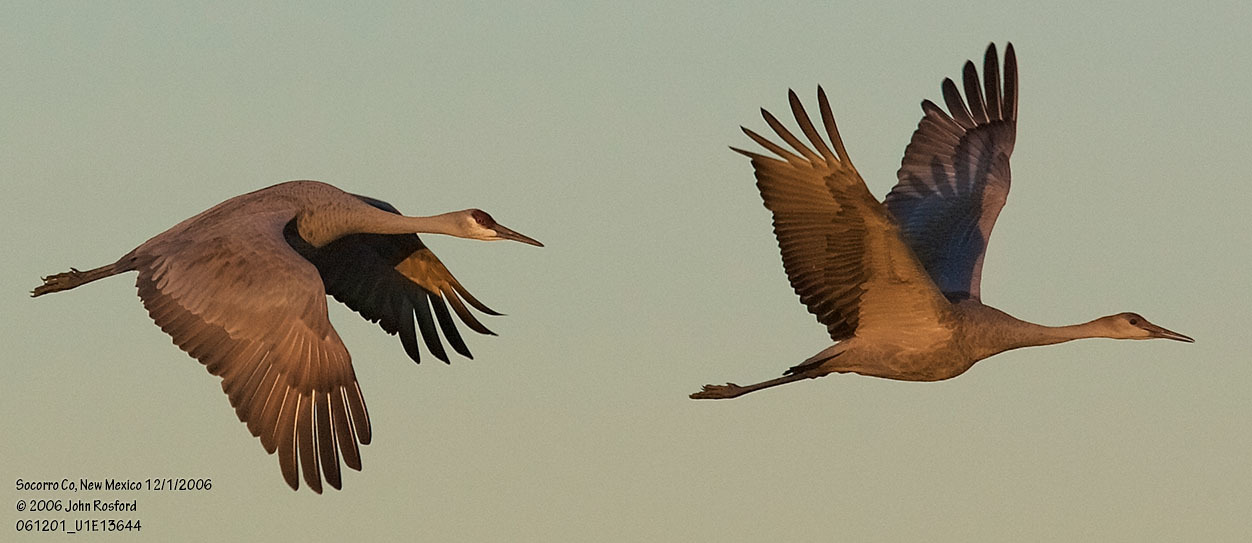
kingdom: Animalia
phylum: Chordata
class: Aves
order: Gruiformes
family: Gruidae
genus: Grus
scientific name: Grus canadensis
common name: Sandhill crane
